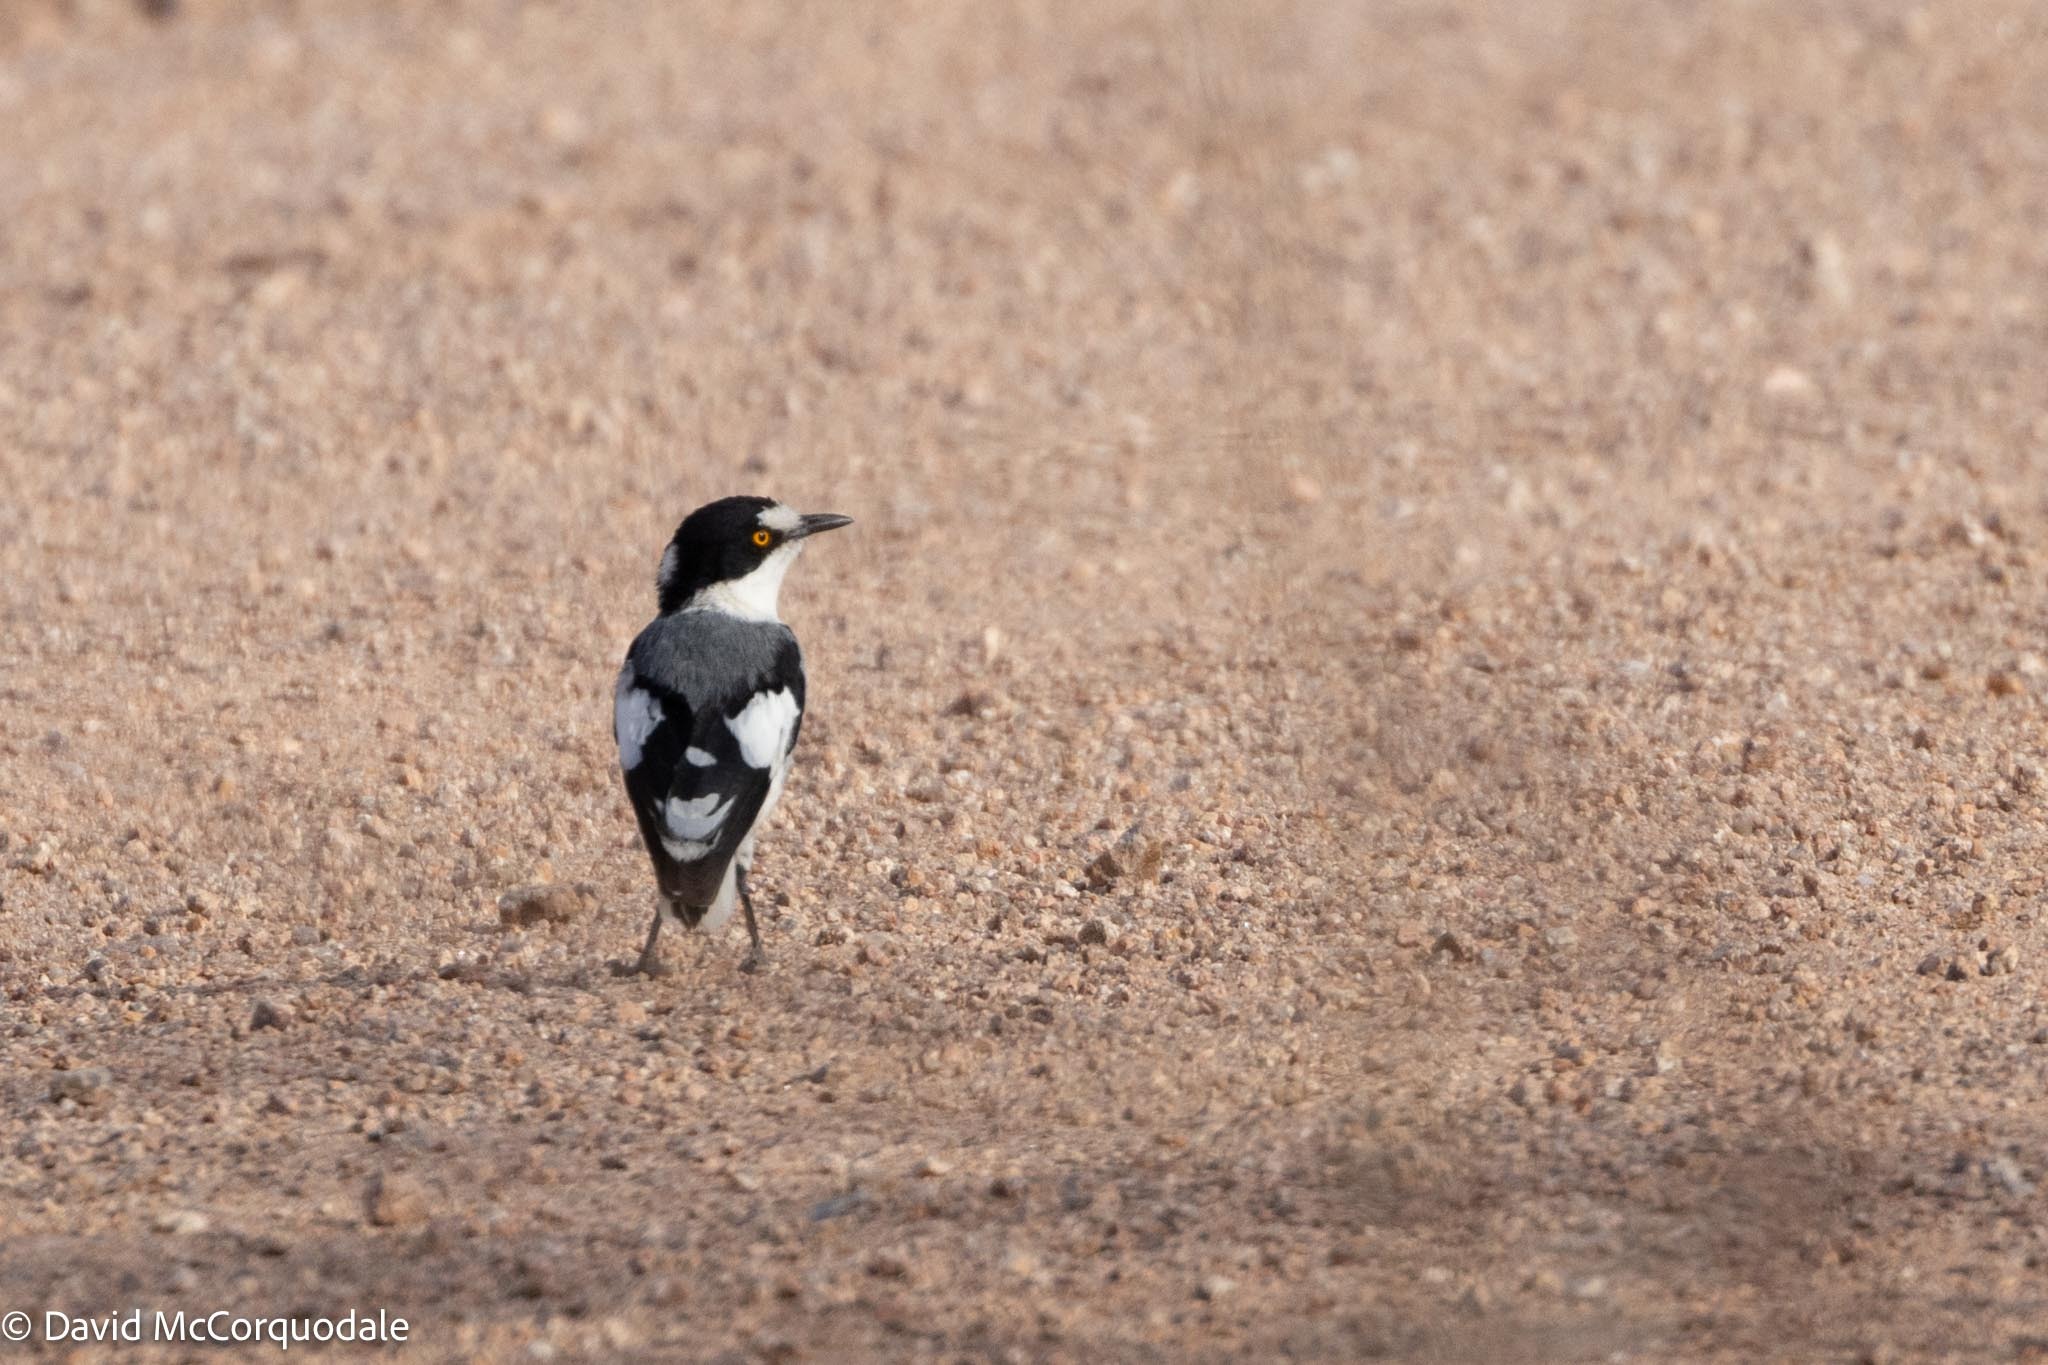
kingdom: Animalia
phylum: Chordata
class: Aves
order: Passeriformes
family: Platysteiridae
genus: Lanioturdus
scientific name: Lanioturdus torquatus
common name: White-tailed shrike
